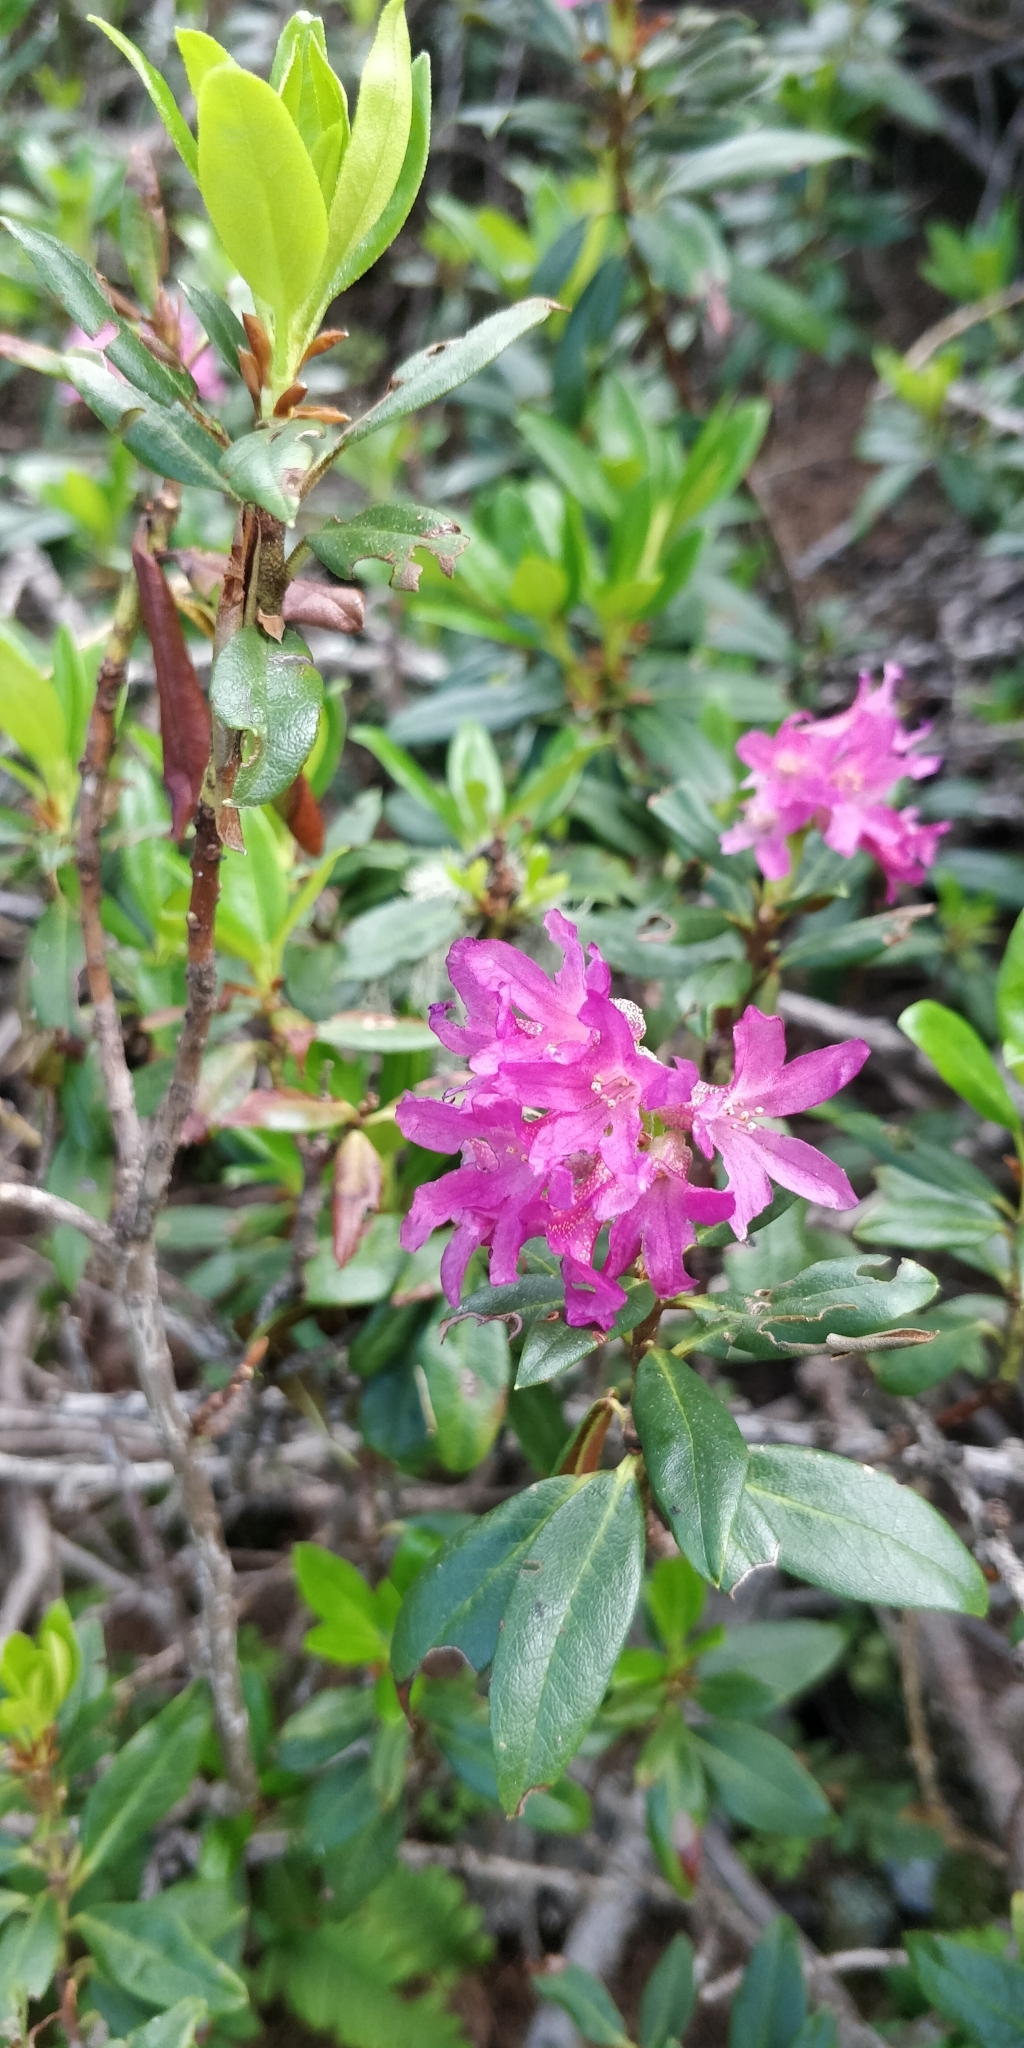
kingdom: Plantae
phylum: Tracheophyta
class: Magnoliopsida
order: Ericales
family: Ericaceae
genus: Rhododendron
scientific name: Rhododendron ferrugineum
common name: Alpenrose
